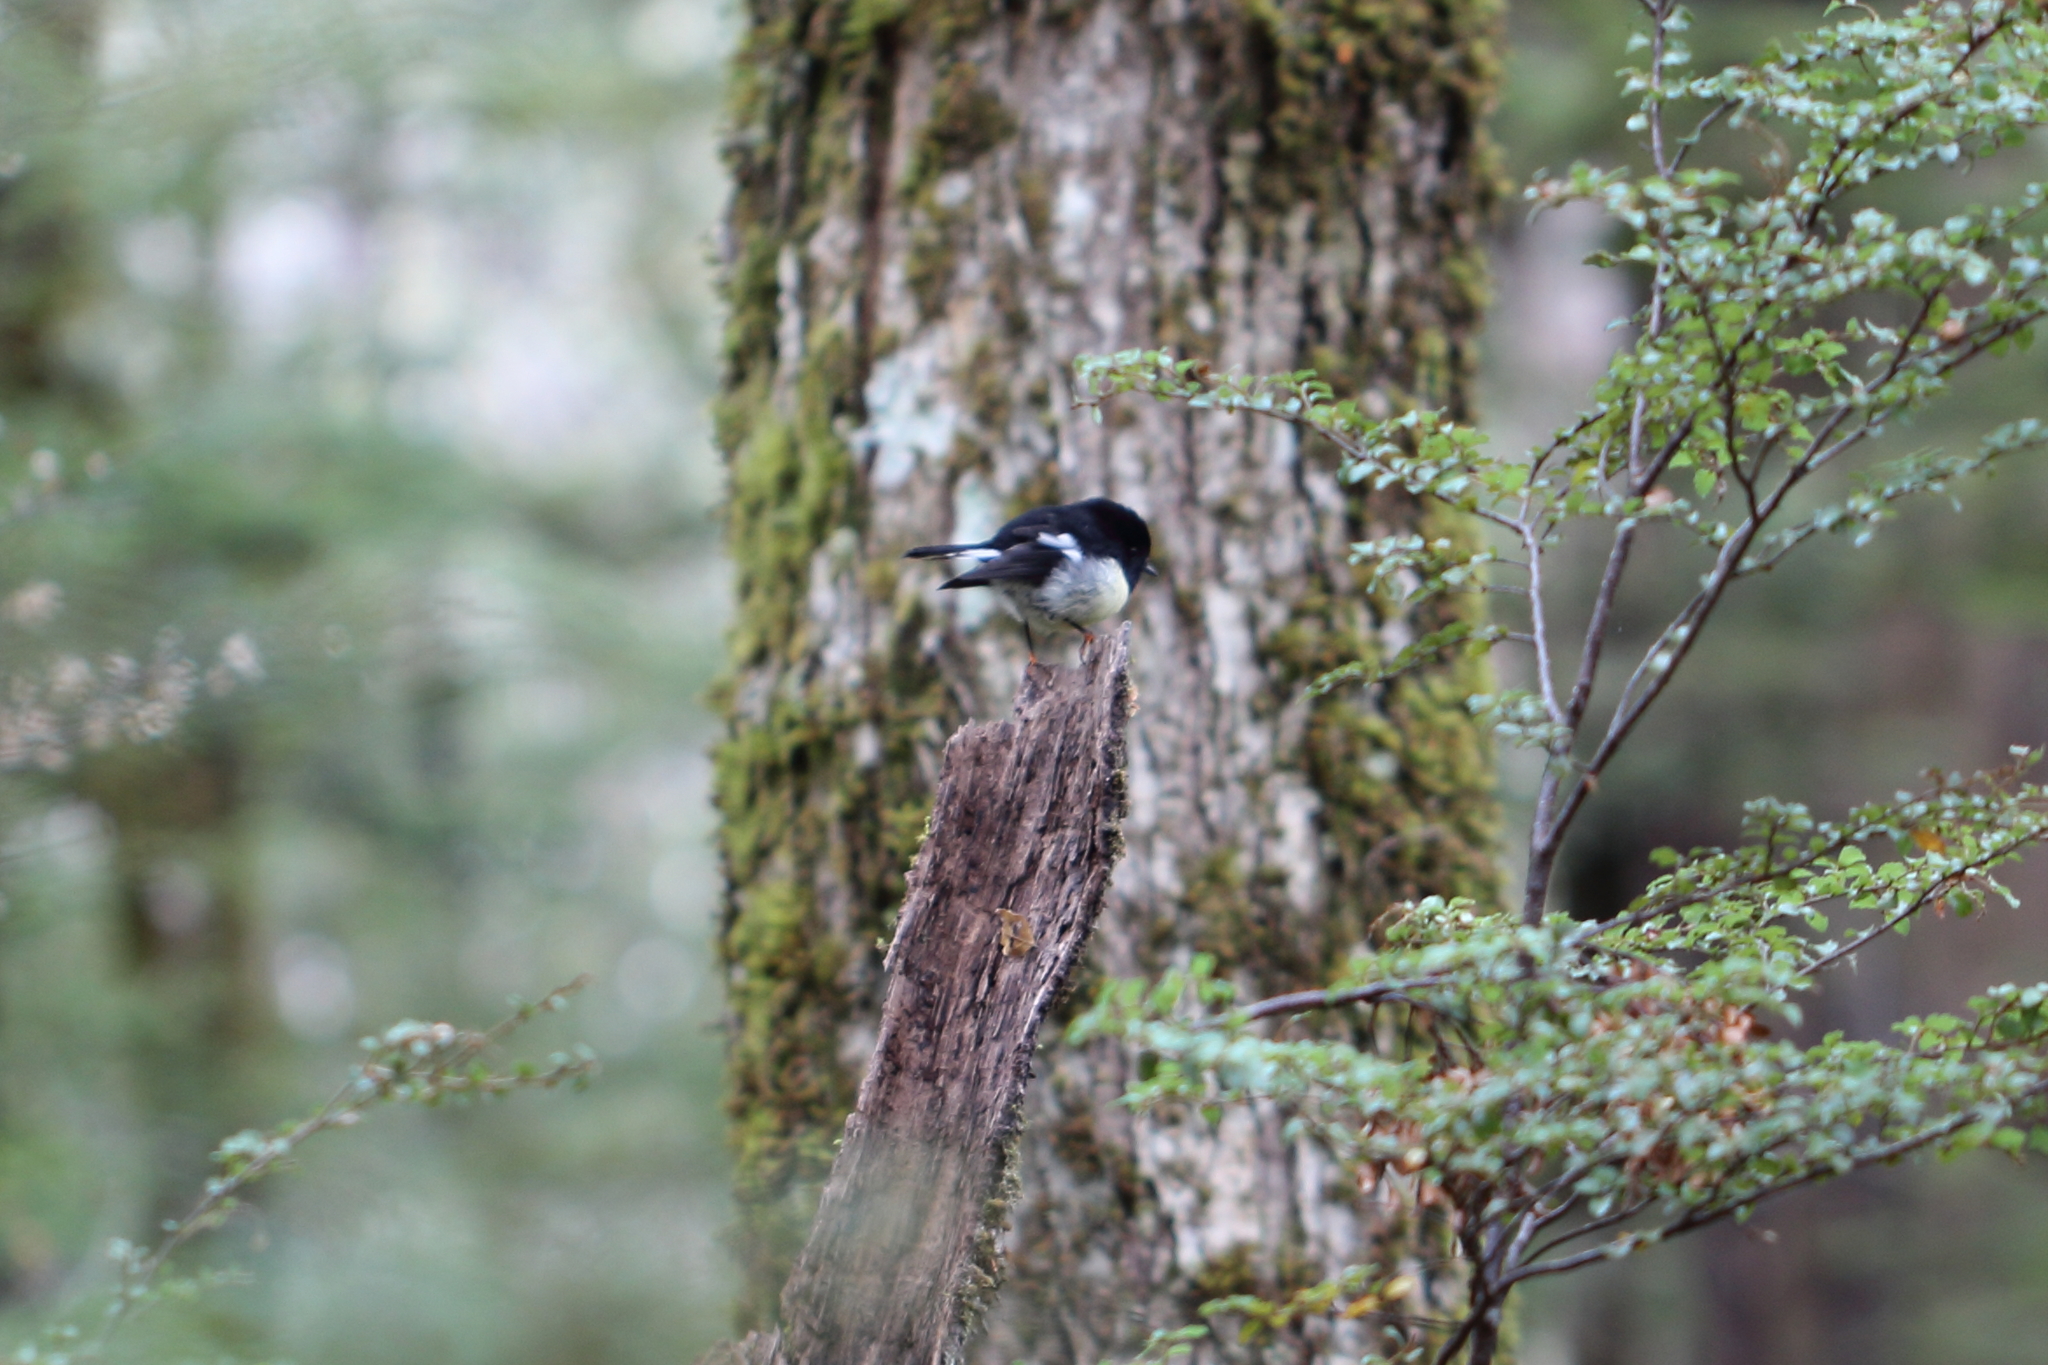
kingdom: Animalia
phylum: Chordata
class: Aves
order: Passeriformes
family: Petroicidae
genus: Petroica
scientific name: Petroica macrocephala
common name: Tomtit
